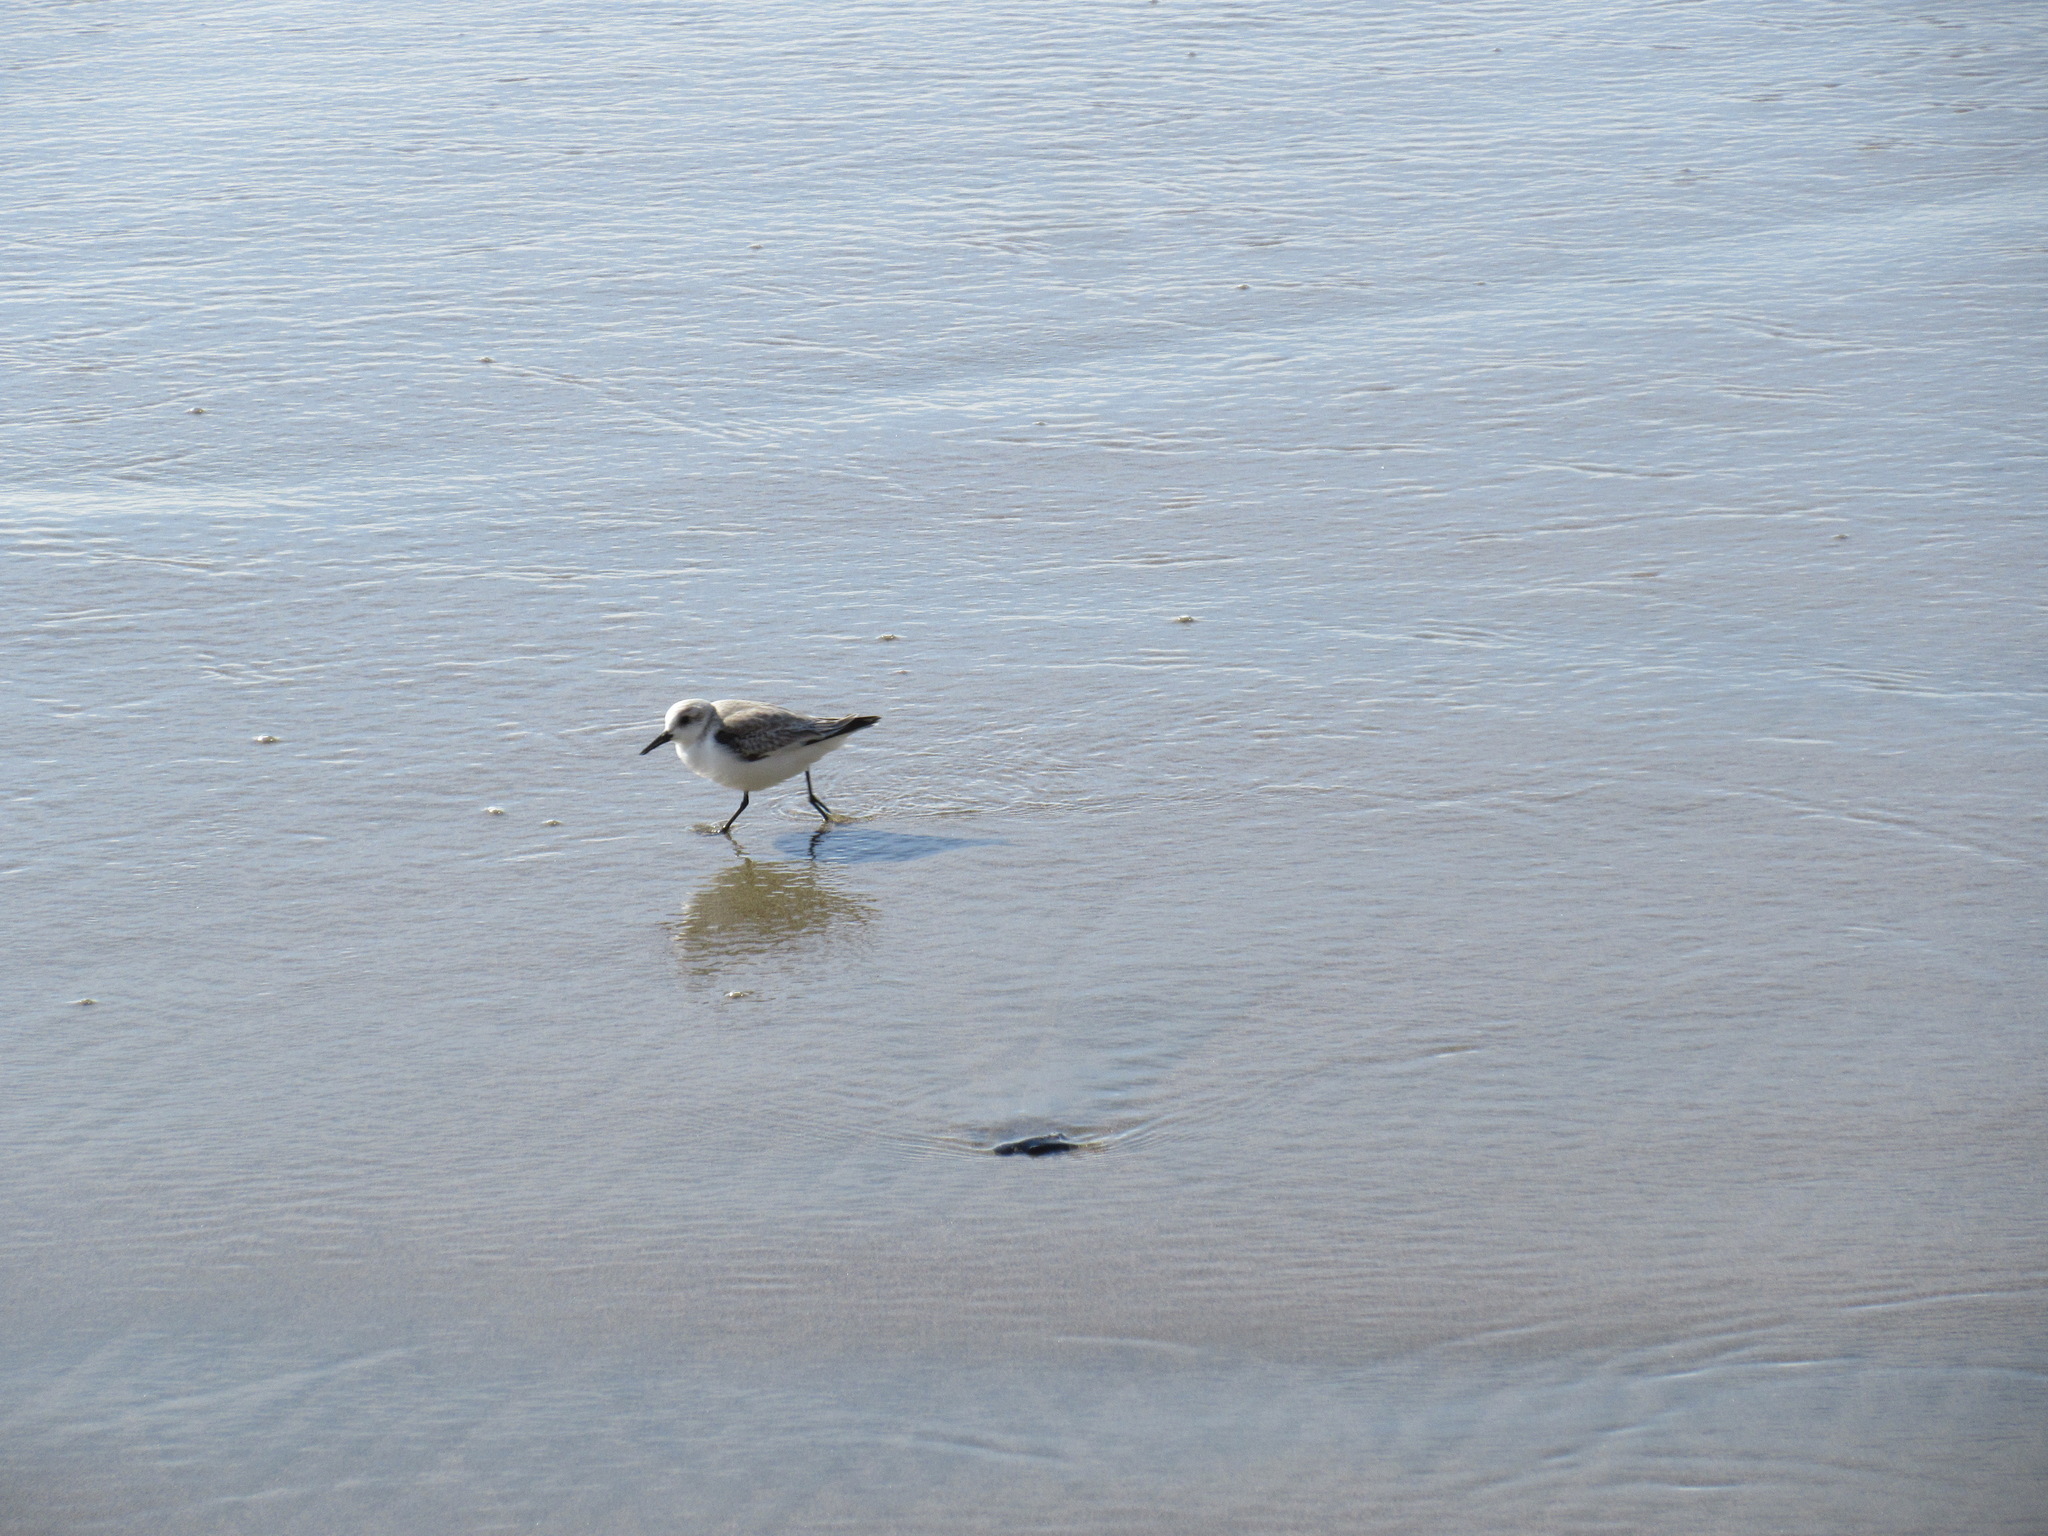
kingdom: Animalia
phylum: Chordata
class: Aves
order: Charadriiformes
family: Scolopacidae
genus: Calidris
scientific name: Calidris alba
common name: Sanderling
